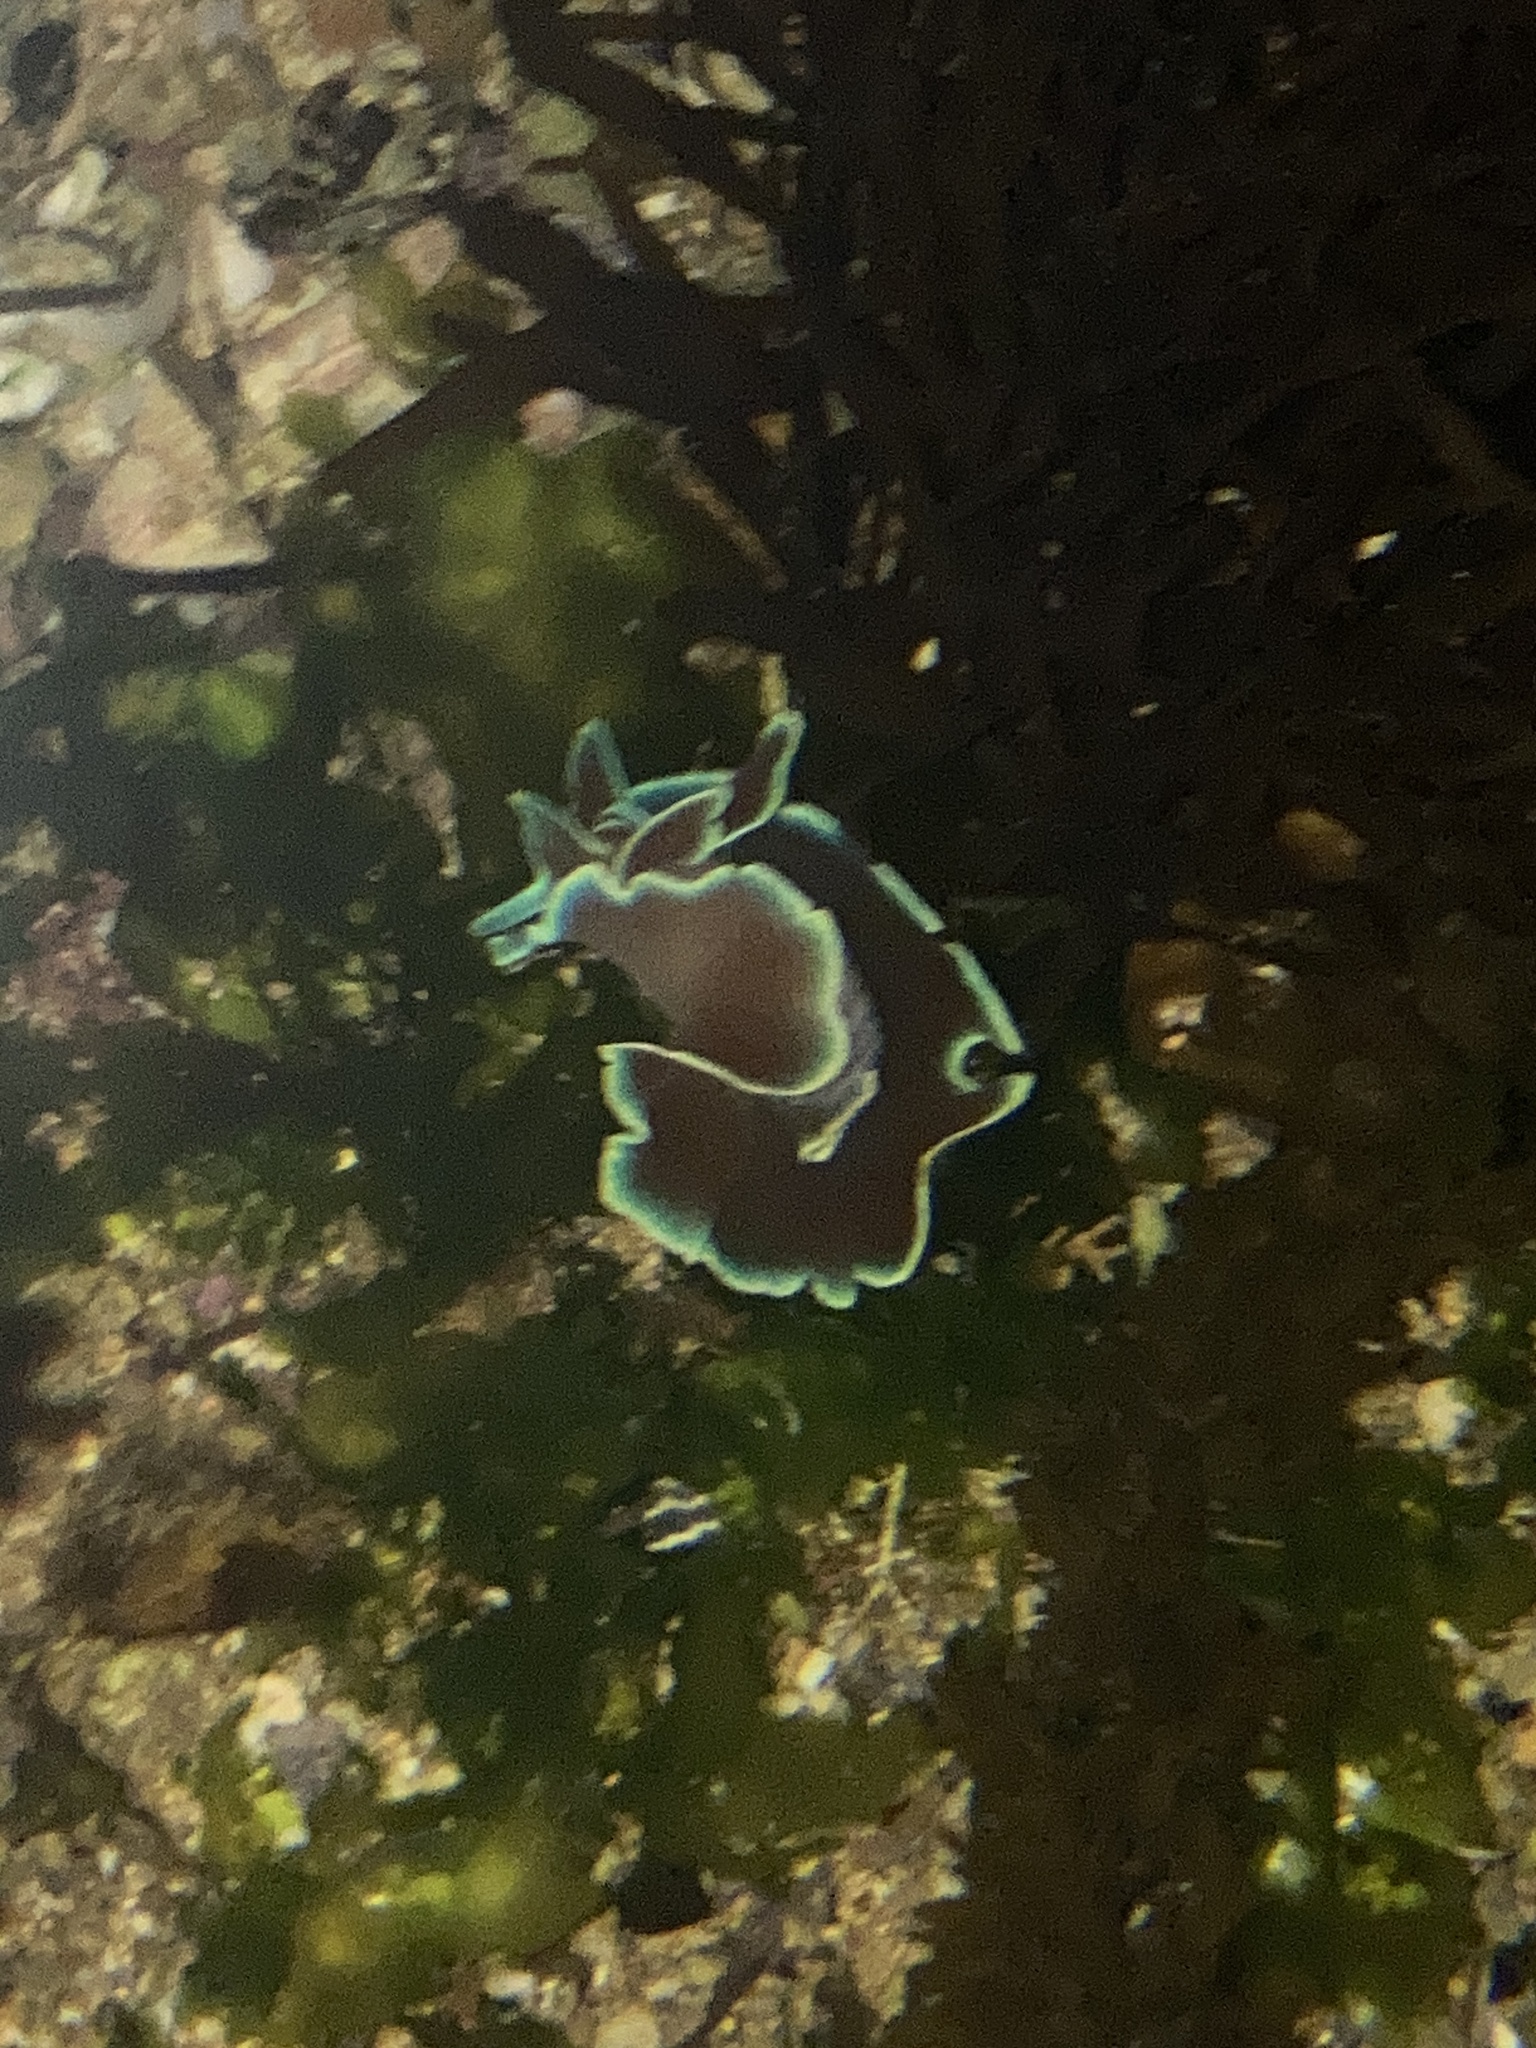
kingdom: Animalia
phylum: Mollusca
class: Gastropoda
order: Cephalaspidea
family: Aplustridae
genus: Hydatina
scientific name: Hydatina physis
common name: Brown-line paperbubble
